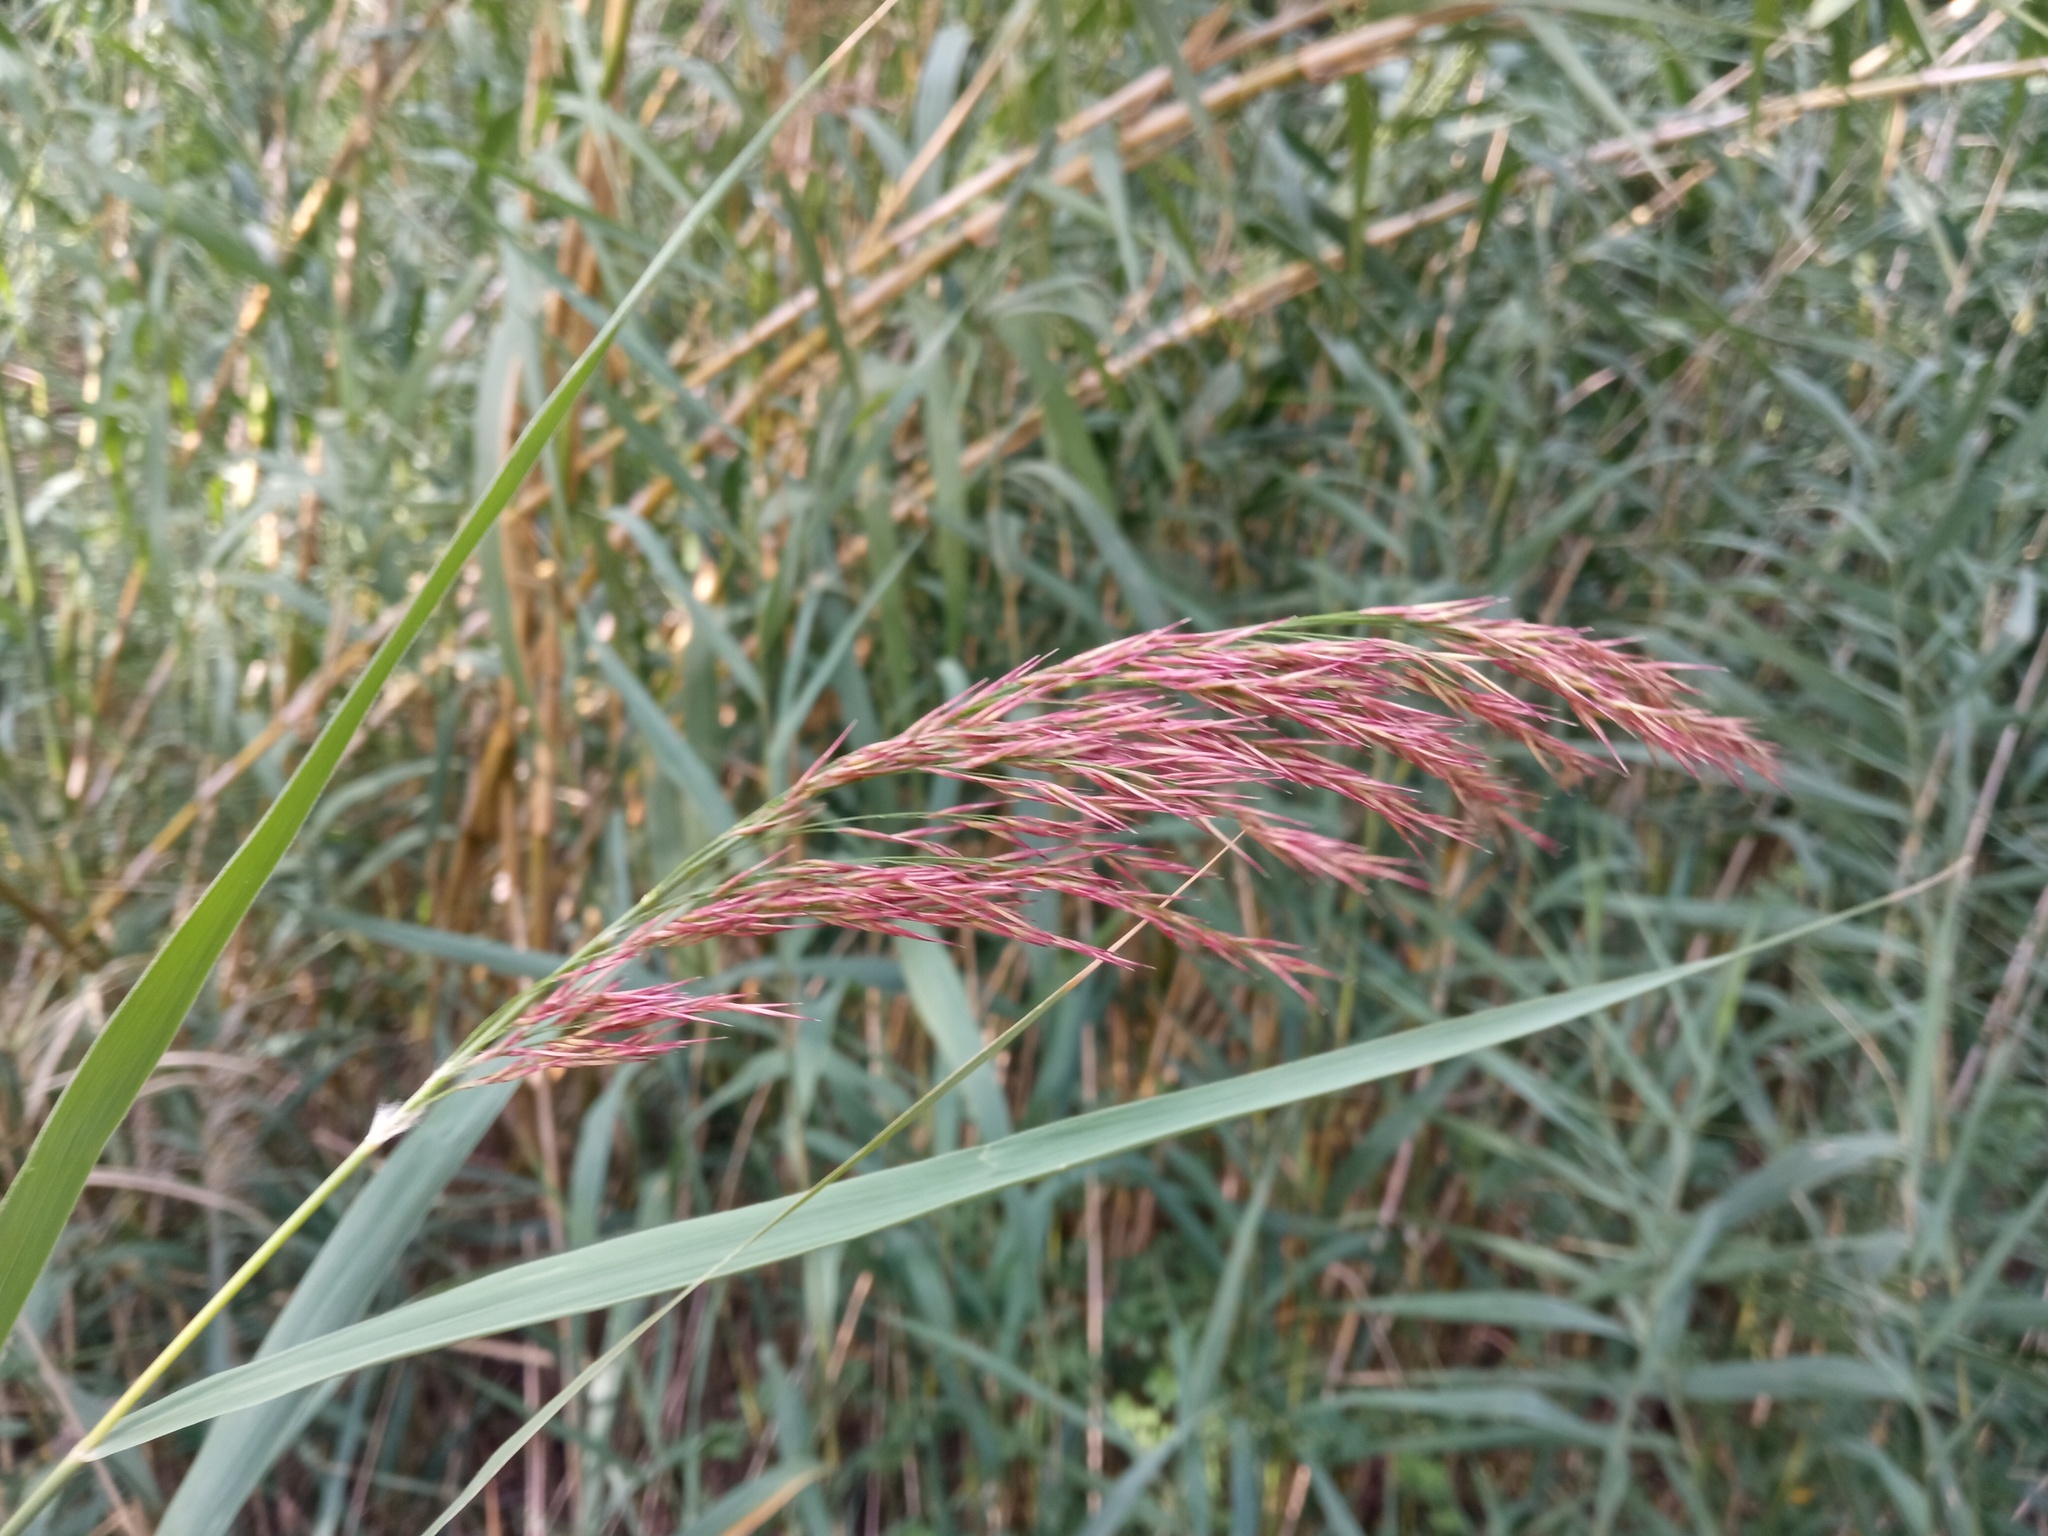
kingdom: Plantae
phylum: Tracheophyta
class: Liliopsida
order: Poales
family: Poaceae
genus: Phragmites
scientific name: Phragmites australis
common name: Common reed
